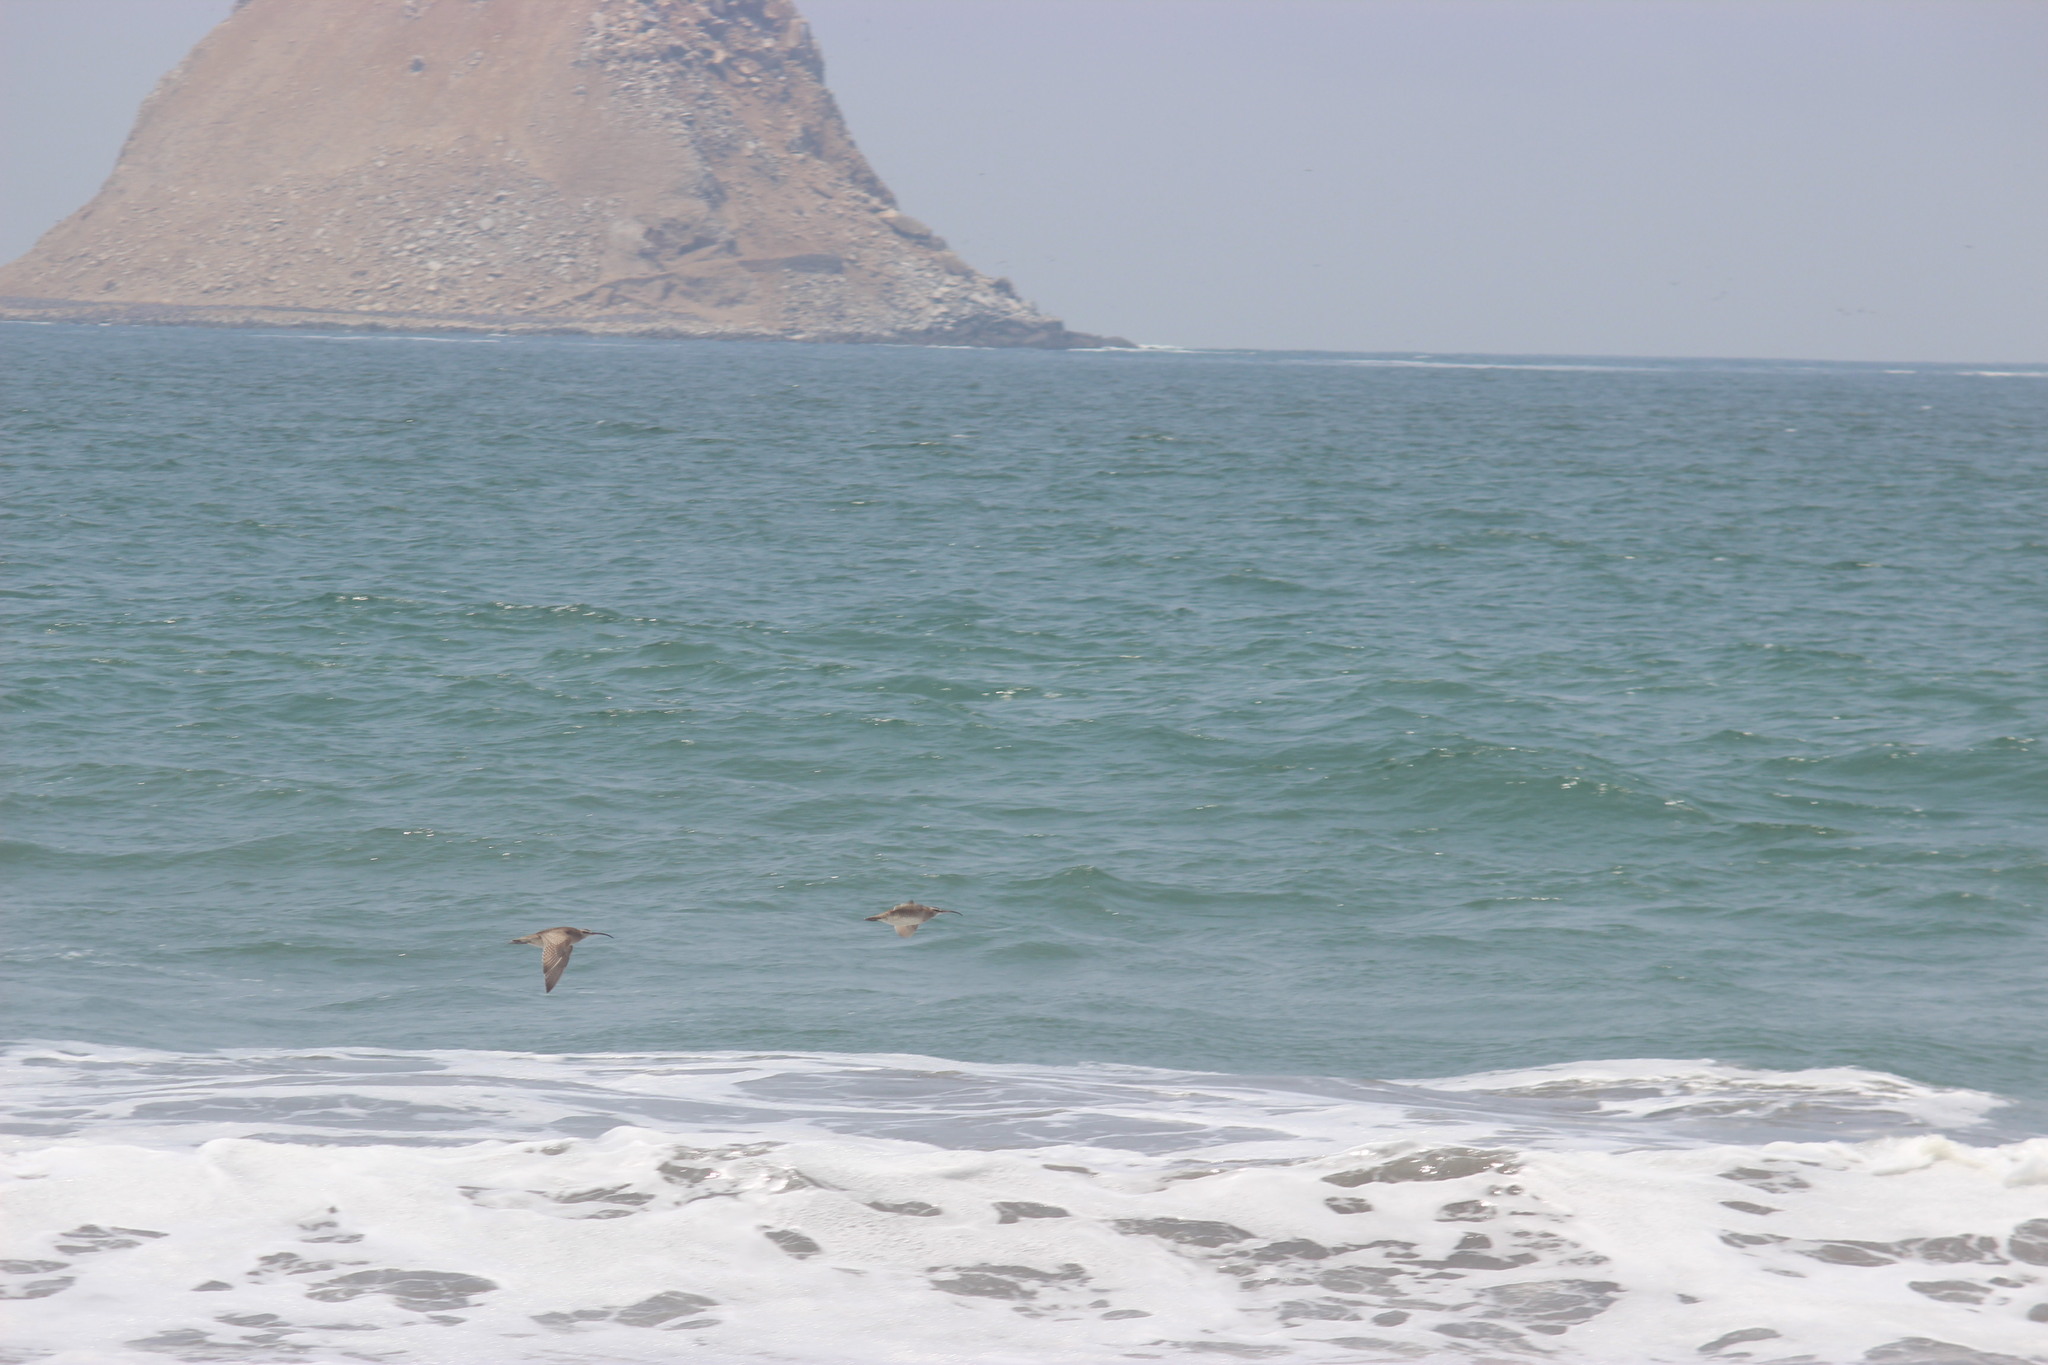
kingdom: Animalia
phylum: Chordata
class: Aves
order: Charadriiformes
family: Scolopacidae
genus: Numenius
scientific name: Numenius phaeopus
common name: Whimbrel
